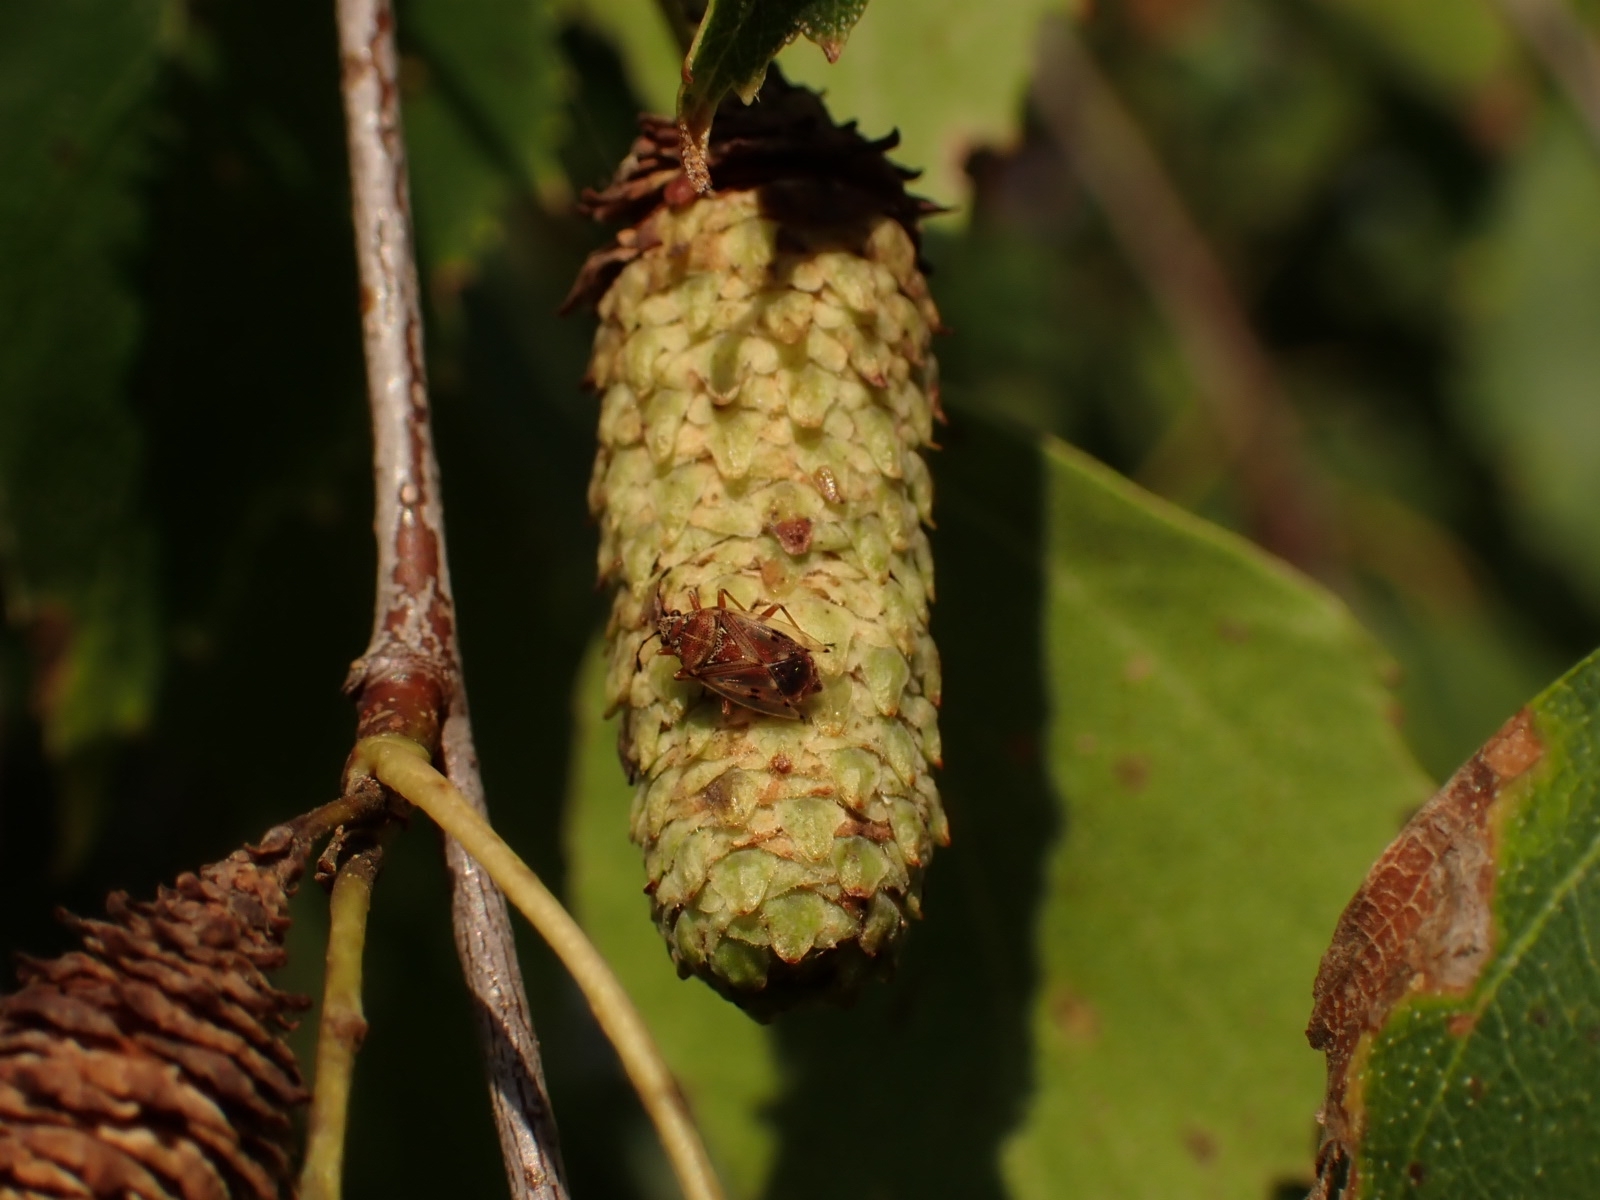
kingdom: Animalia
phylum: Arthropoda
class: Insecta
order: Hemiptera
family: Lygaeidae
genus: Kleidocerys
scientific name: Kleidocerys resedae
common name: Birch catkin bug
